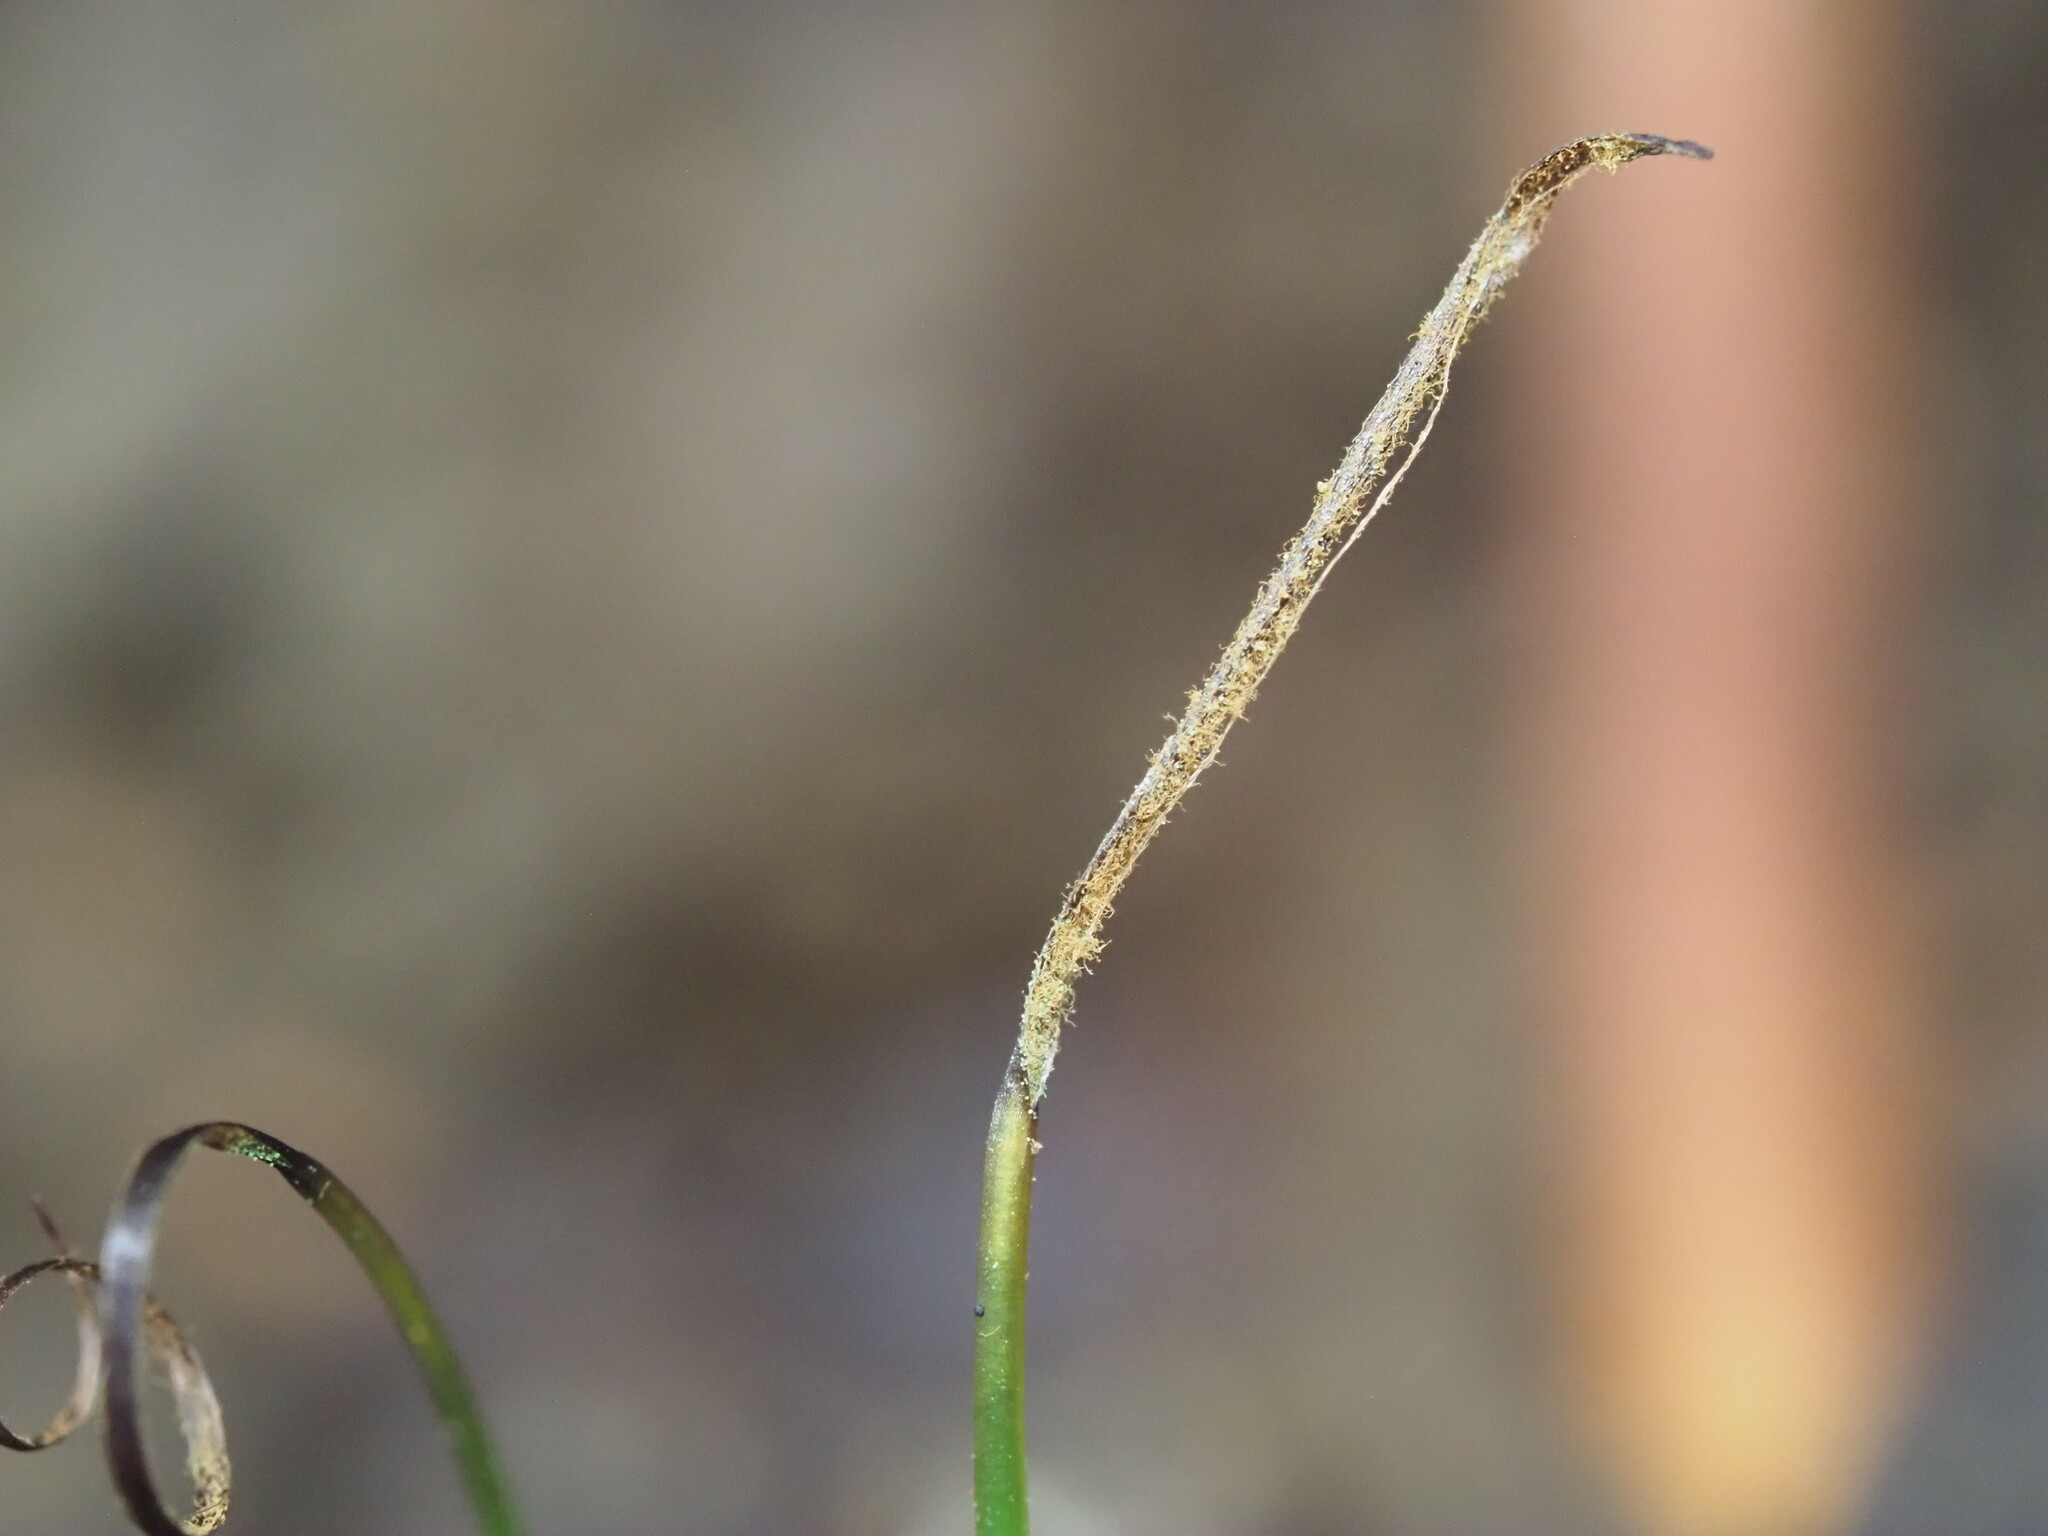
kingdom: Plantae
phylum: Anthocerotophyta
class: Anthocerotopsida
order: Dendrocerotales
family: Dendrocerotaceae
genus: Megaceros
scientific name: Megaceros flagellaris
